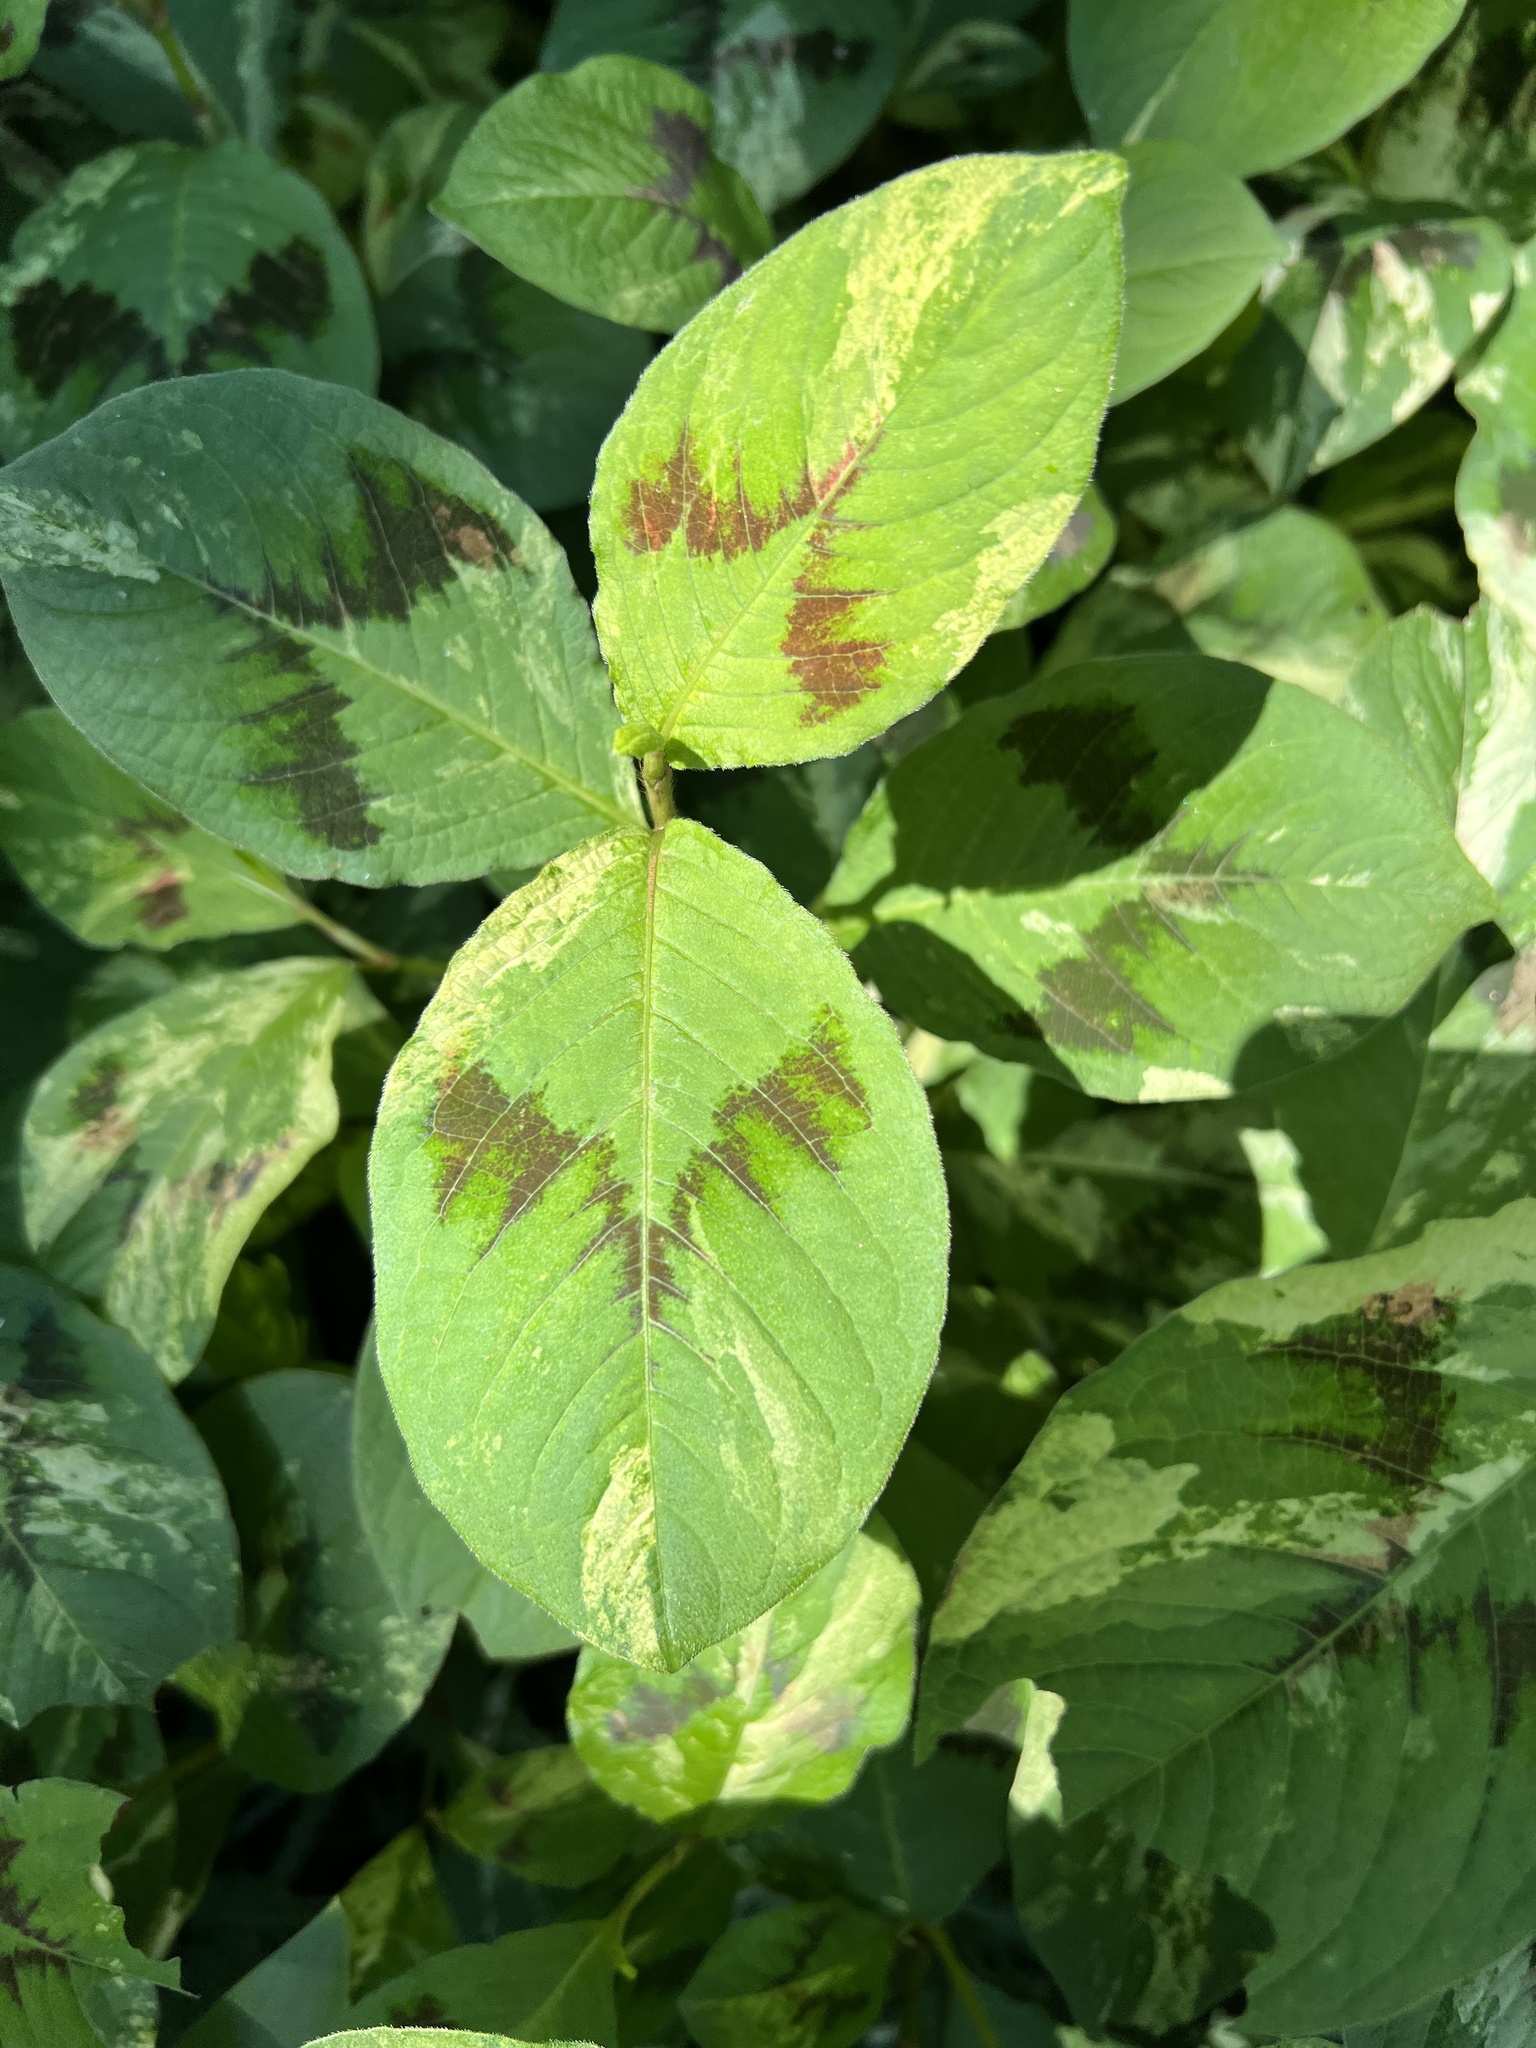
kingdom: Plantae
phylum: Tracheophyta
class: Magnoliopsida
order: Caryophyllales
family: Polygonaceae
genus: Persicaria
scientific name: Persicaria filiformis
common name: Asian jumpseed
